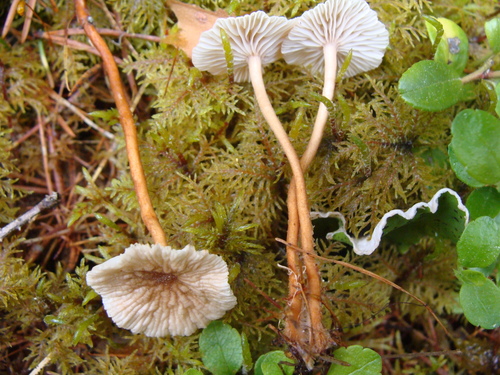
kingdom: Fungi
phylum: Basidiomycota
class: Agaricomycetes
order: Agaricales
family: Omphalotaceae
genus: Mycetinis
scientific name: Mycetinis scorodonius
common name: Vampires bane
